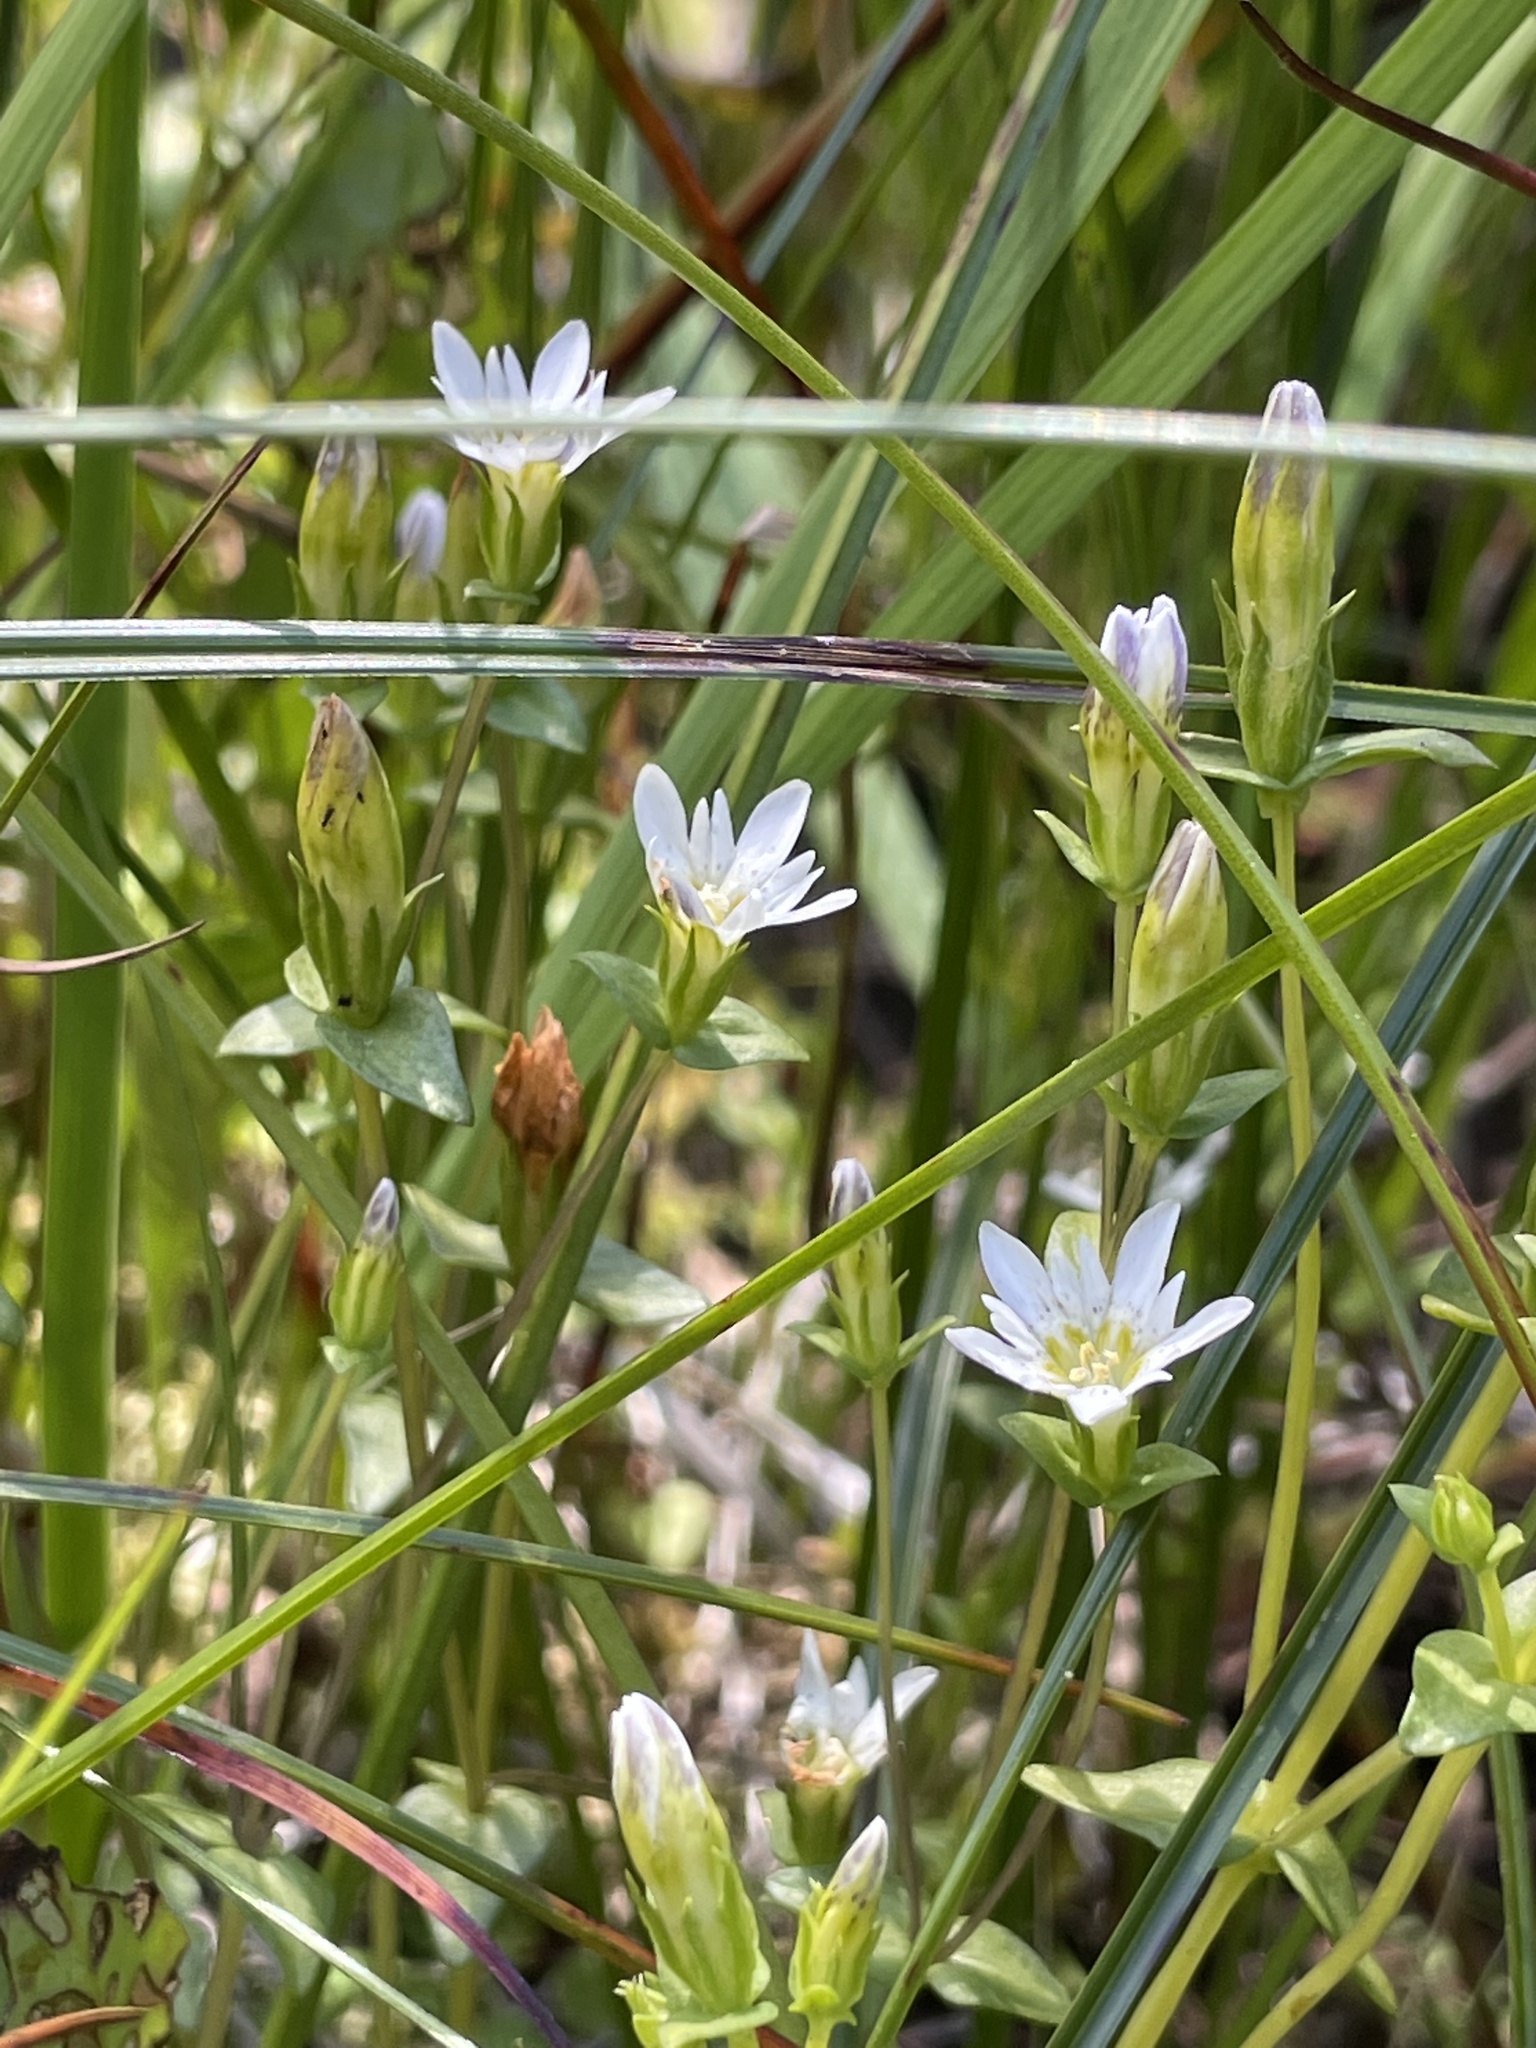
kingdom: Plantae
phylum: Tracheophyta
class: Magnoliopsida
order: Gentianales
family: Gentianaceae
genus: Gentiana
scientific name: Gentiana douglasiana
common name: Swamp gentian
